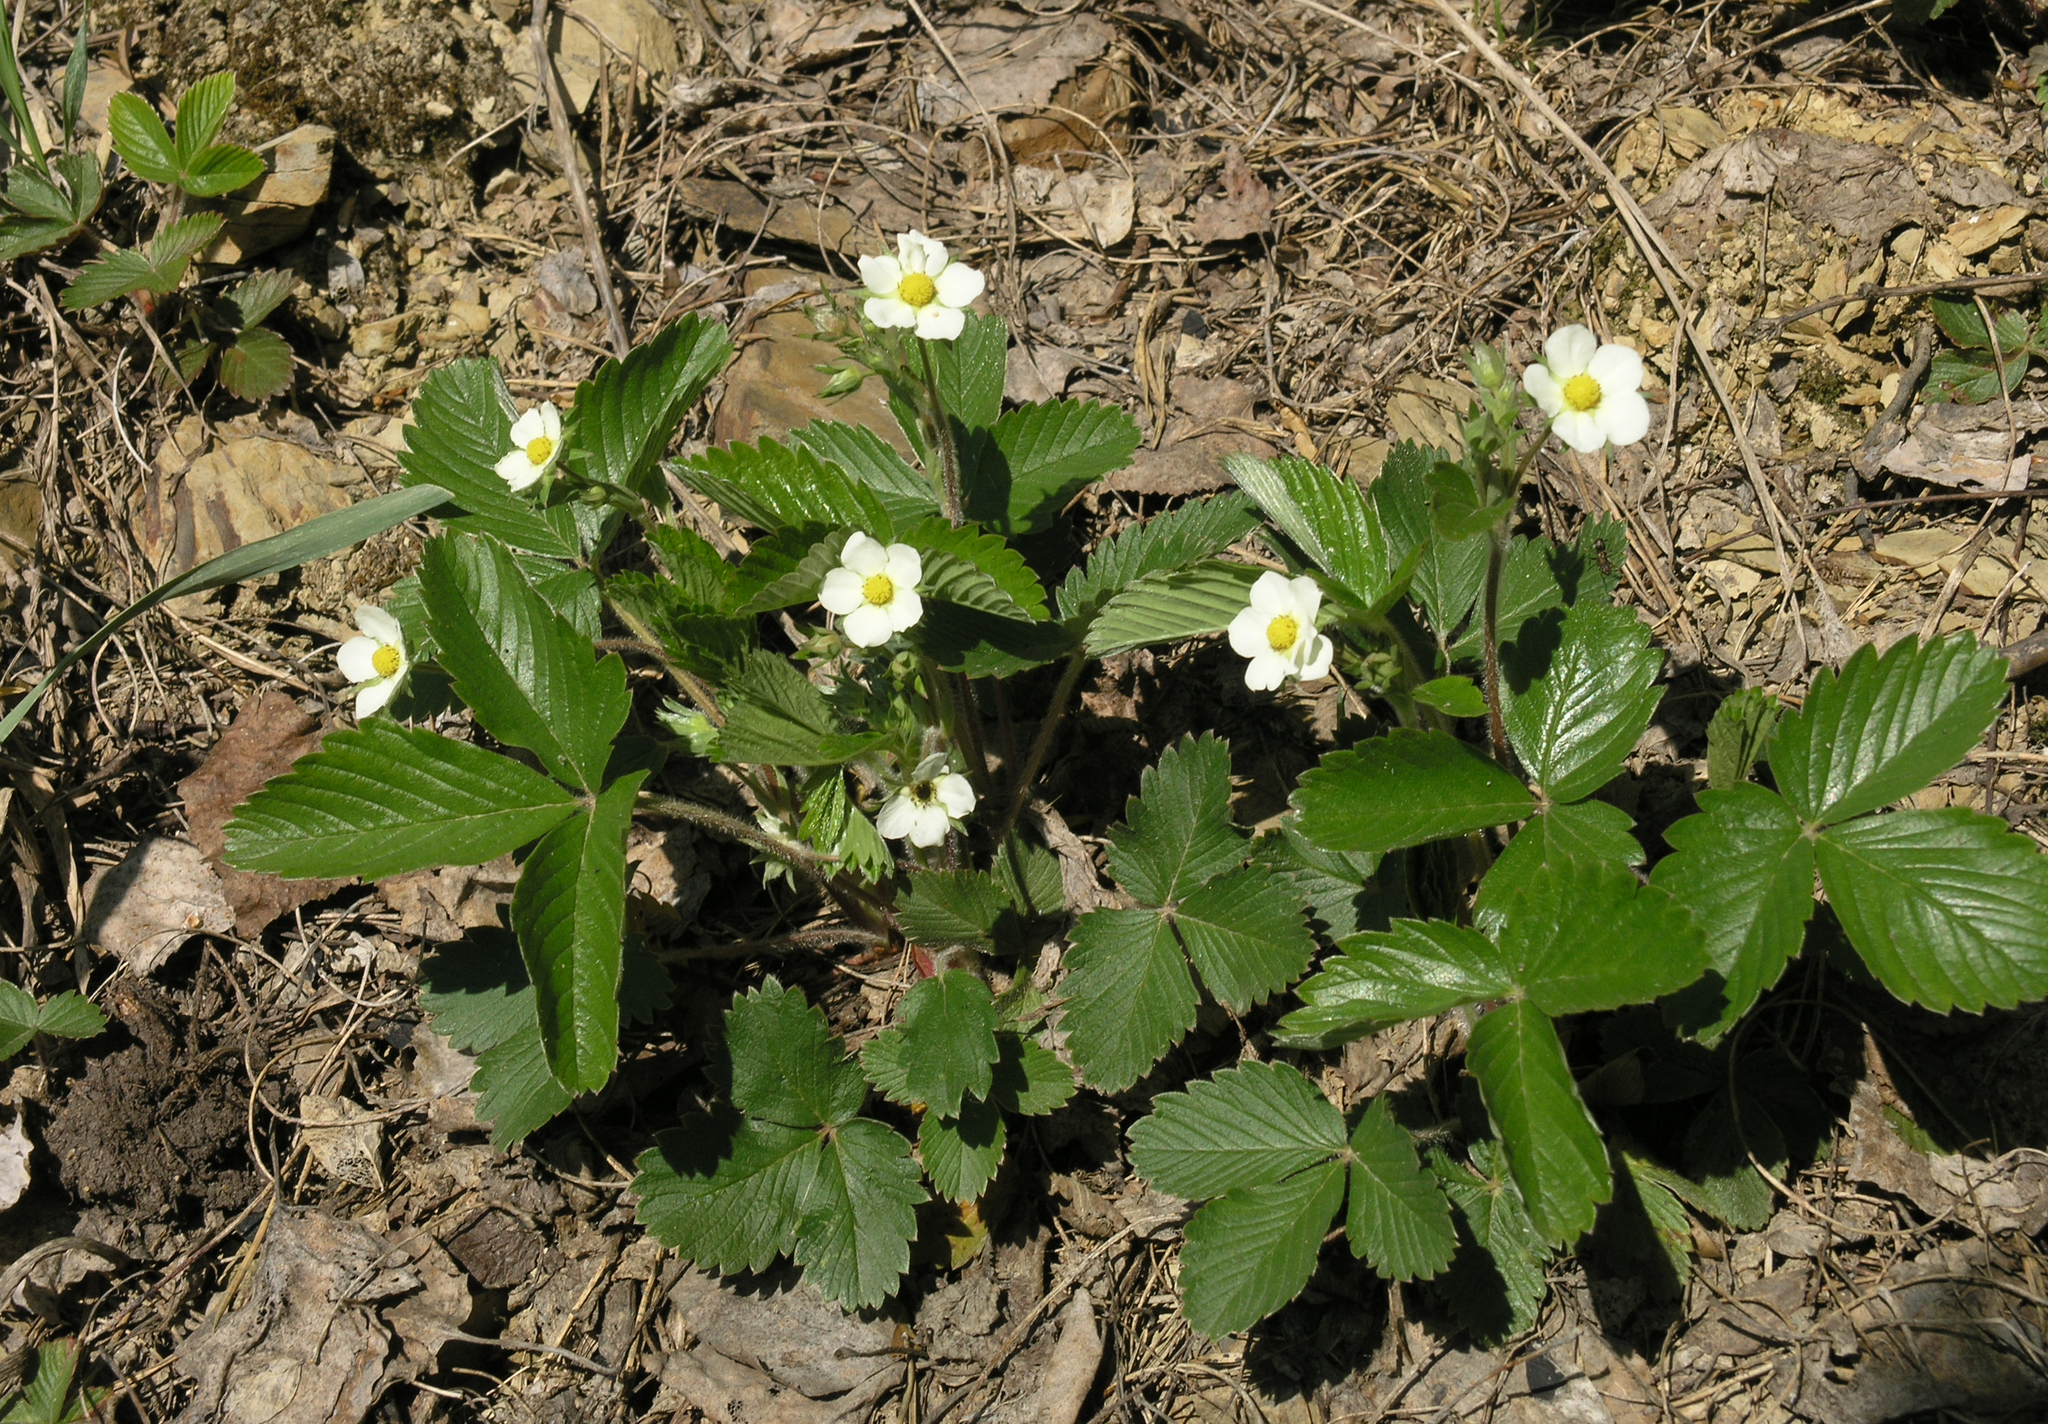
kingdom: Plantae
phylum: Tracheophyta
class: Magnoliopsida
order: Rosales
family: Rosaceae
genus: Fragaria
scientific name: Fragaria vesca
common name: Wild strawberry
